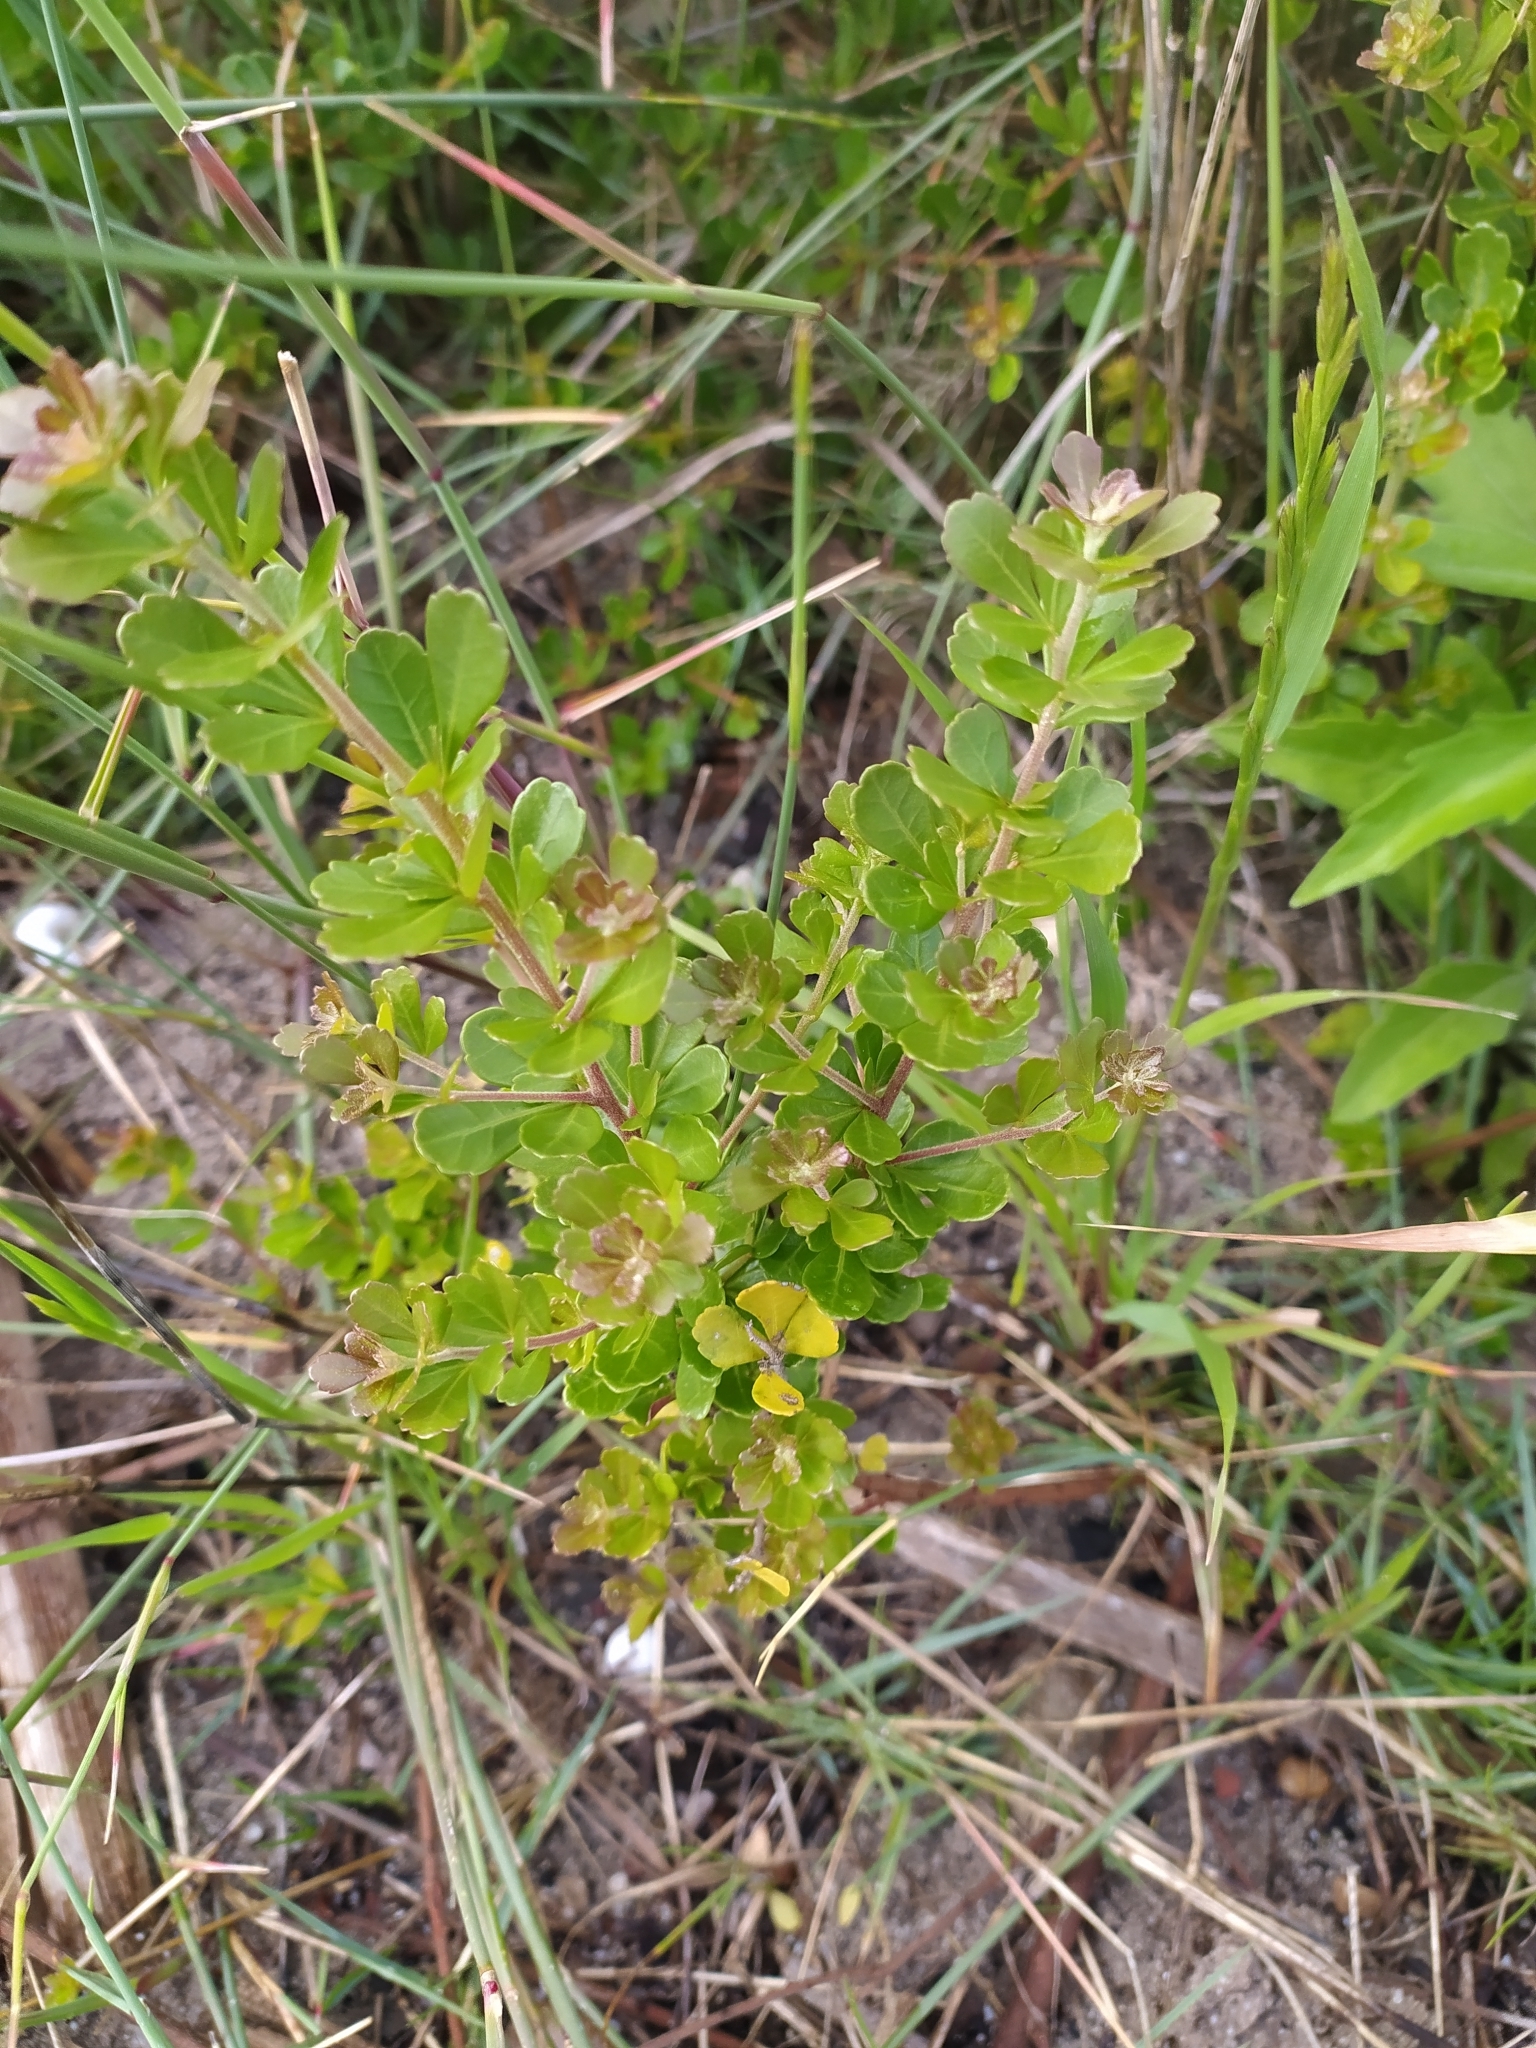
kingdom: Plantae
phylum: Tracheophyta
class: Magnoliopsida
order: Sapindales
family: Anacardiaceae
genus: Searsia
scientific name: Searsia crenata
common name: Crowberry
